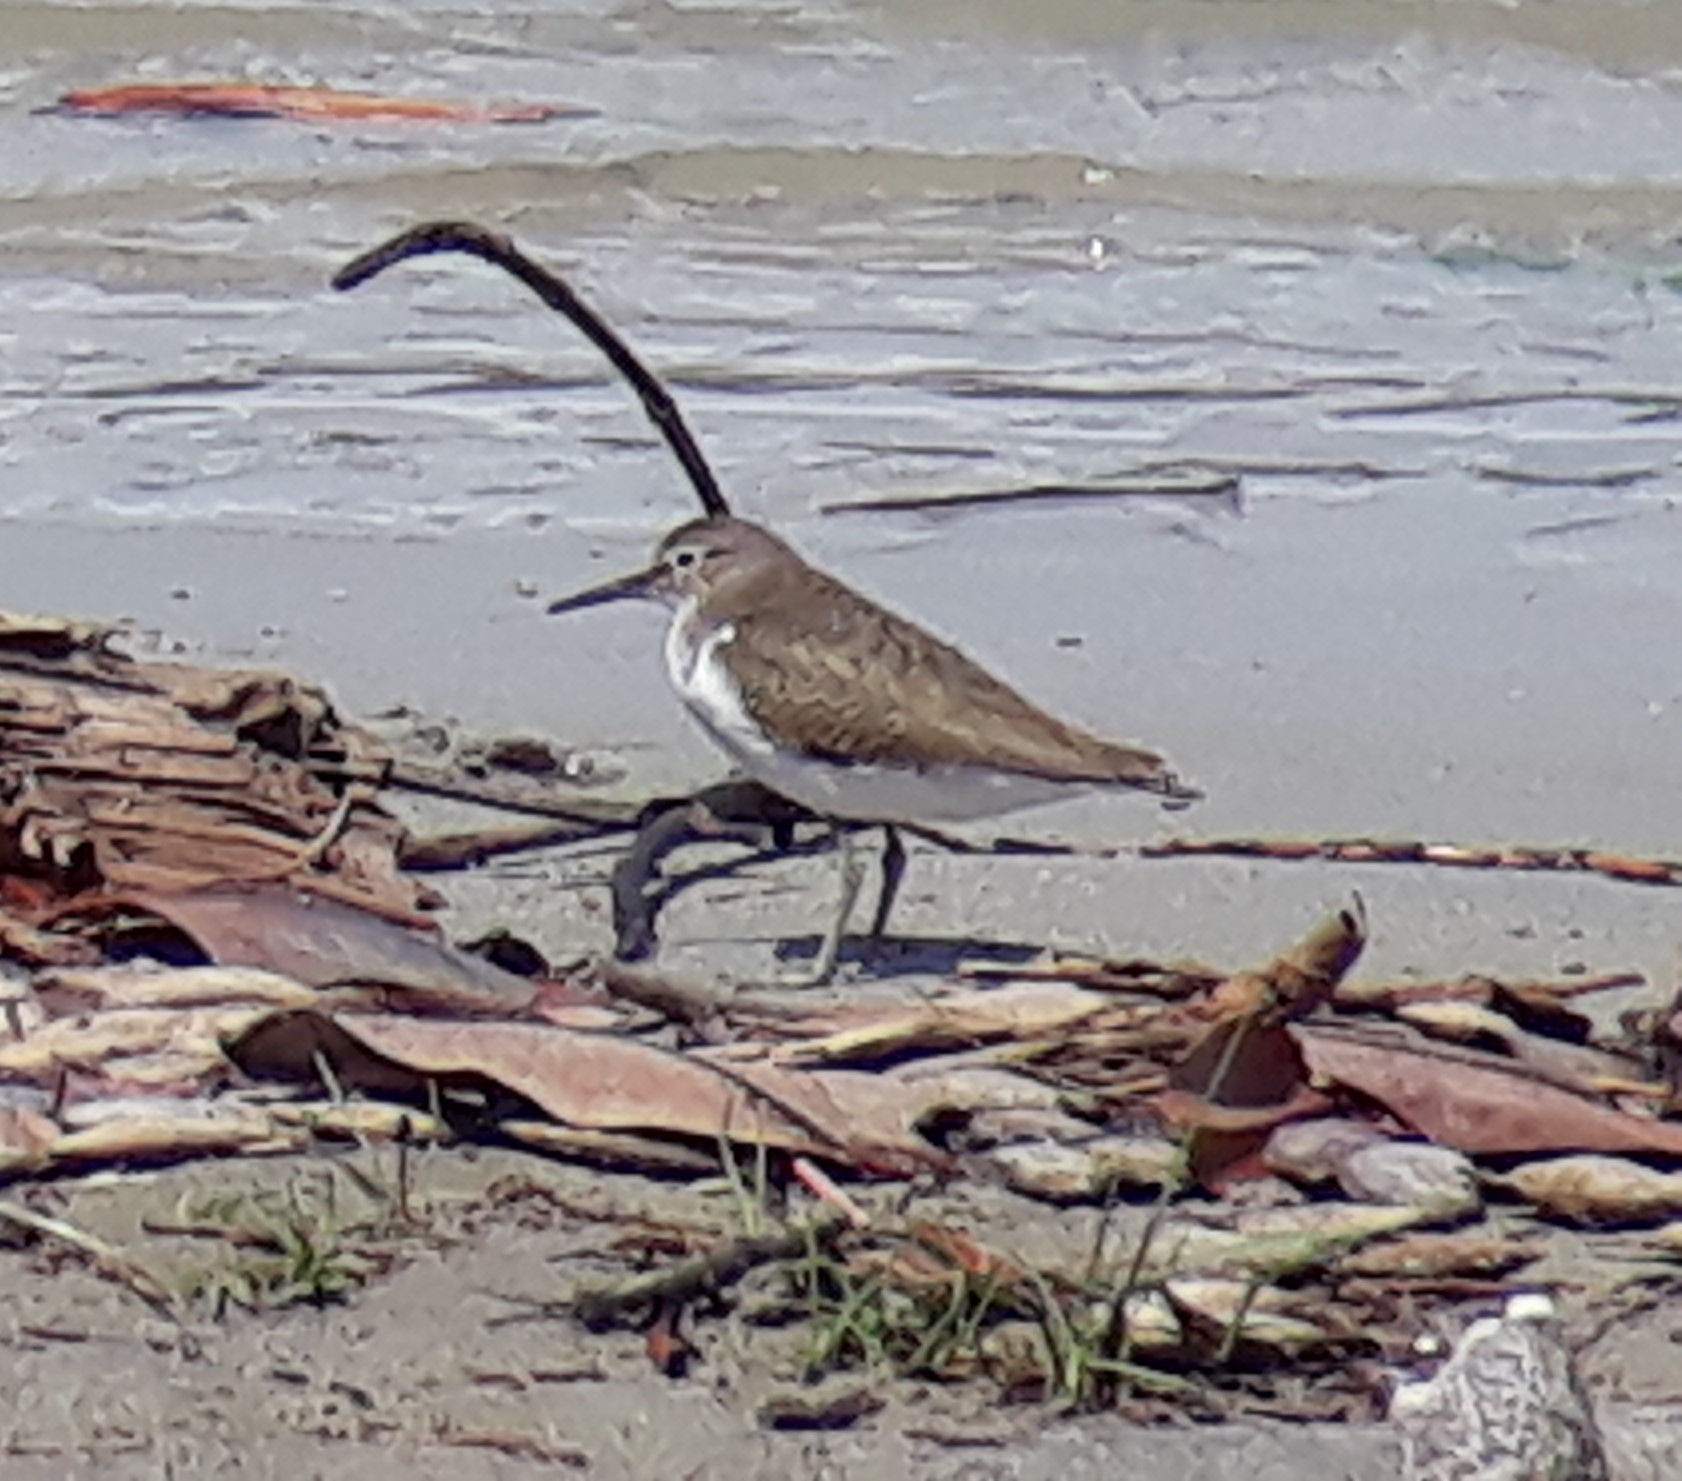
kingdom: Animalia
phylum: Chordata
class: Aves
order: Charadriiformes
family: Scolopacidae
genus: Actitis
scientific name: Actitis hypoleucos
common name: Common sandpiper
